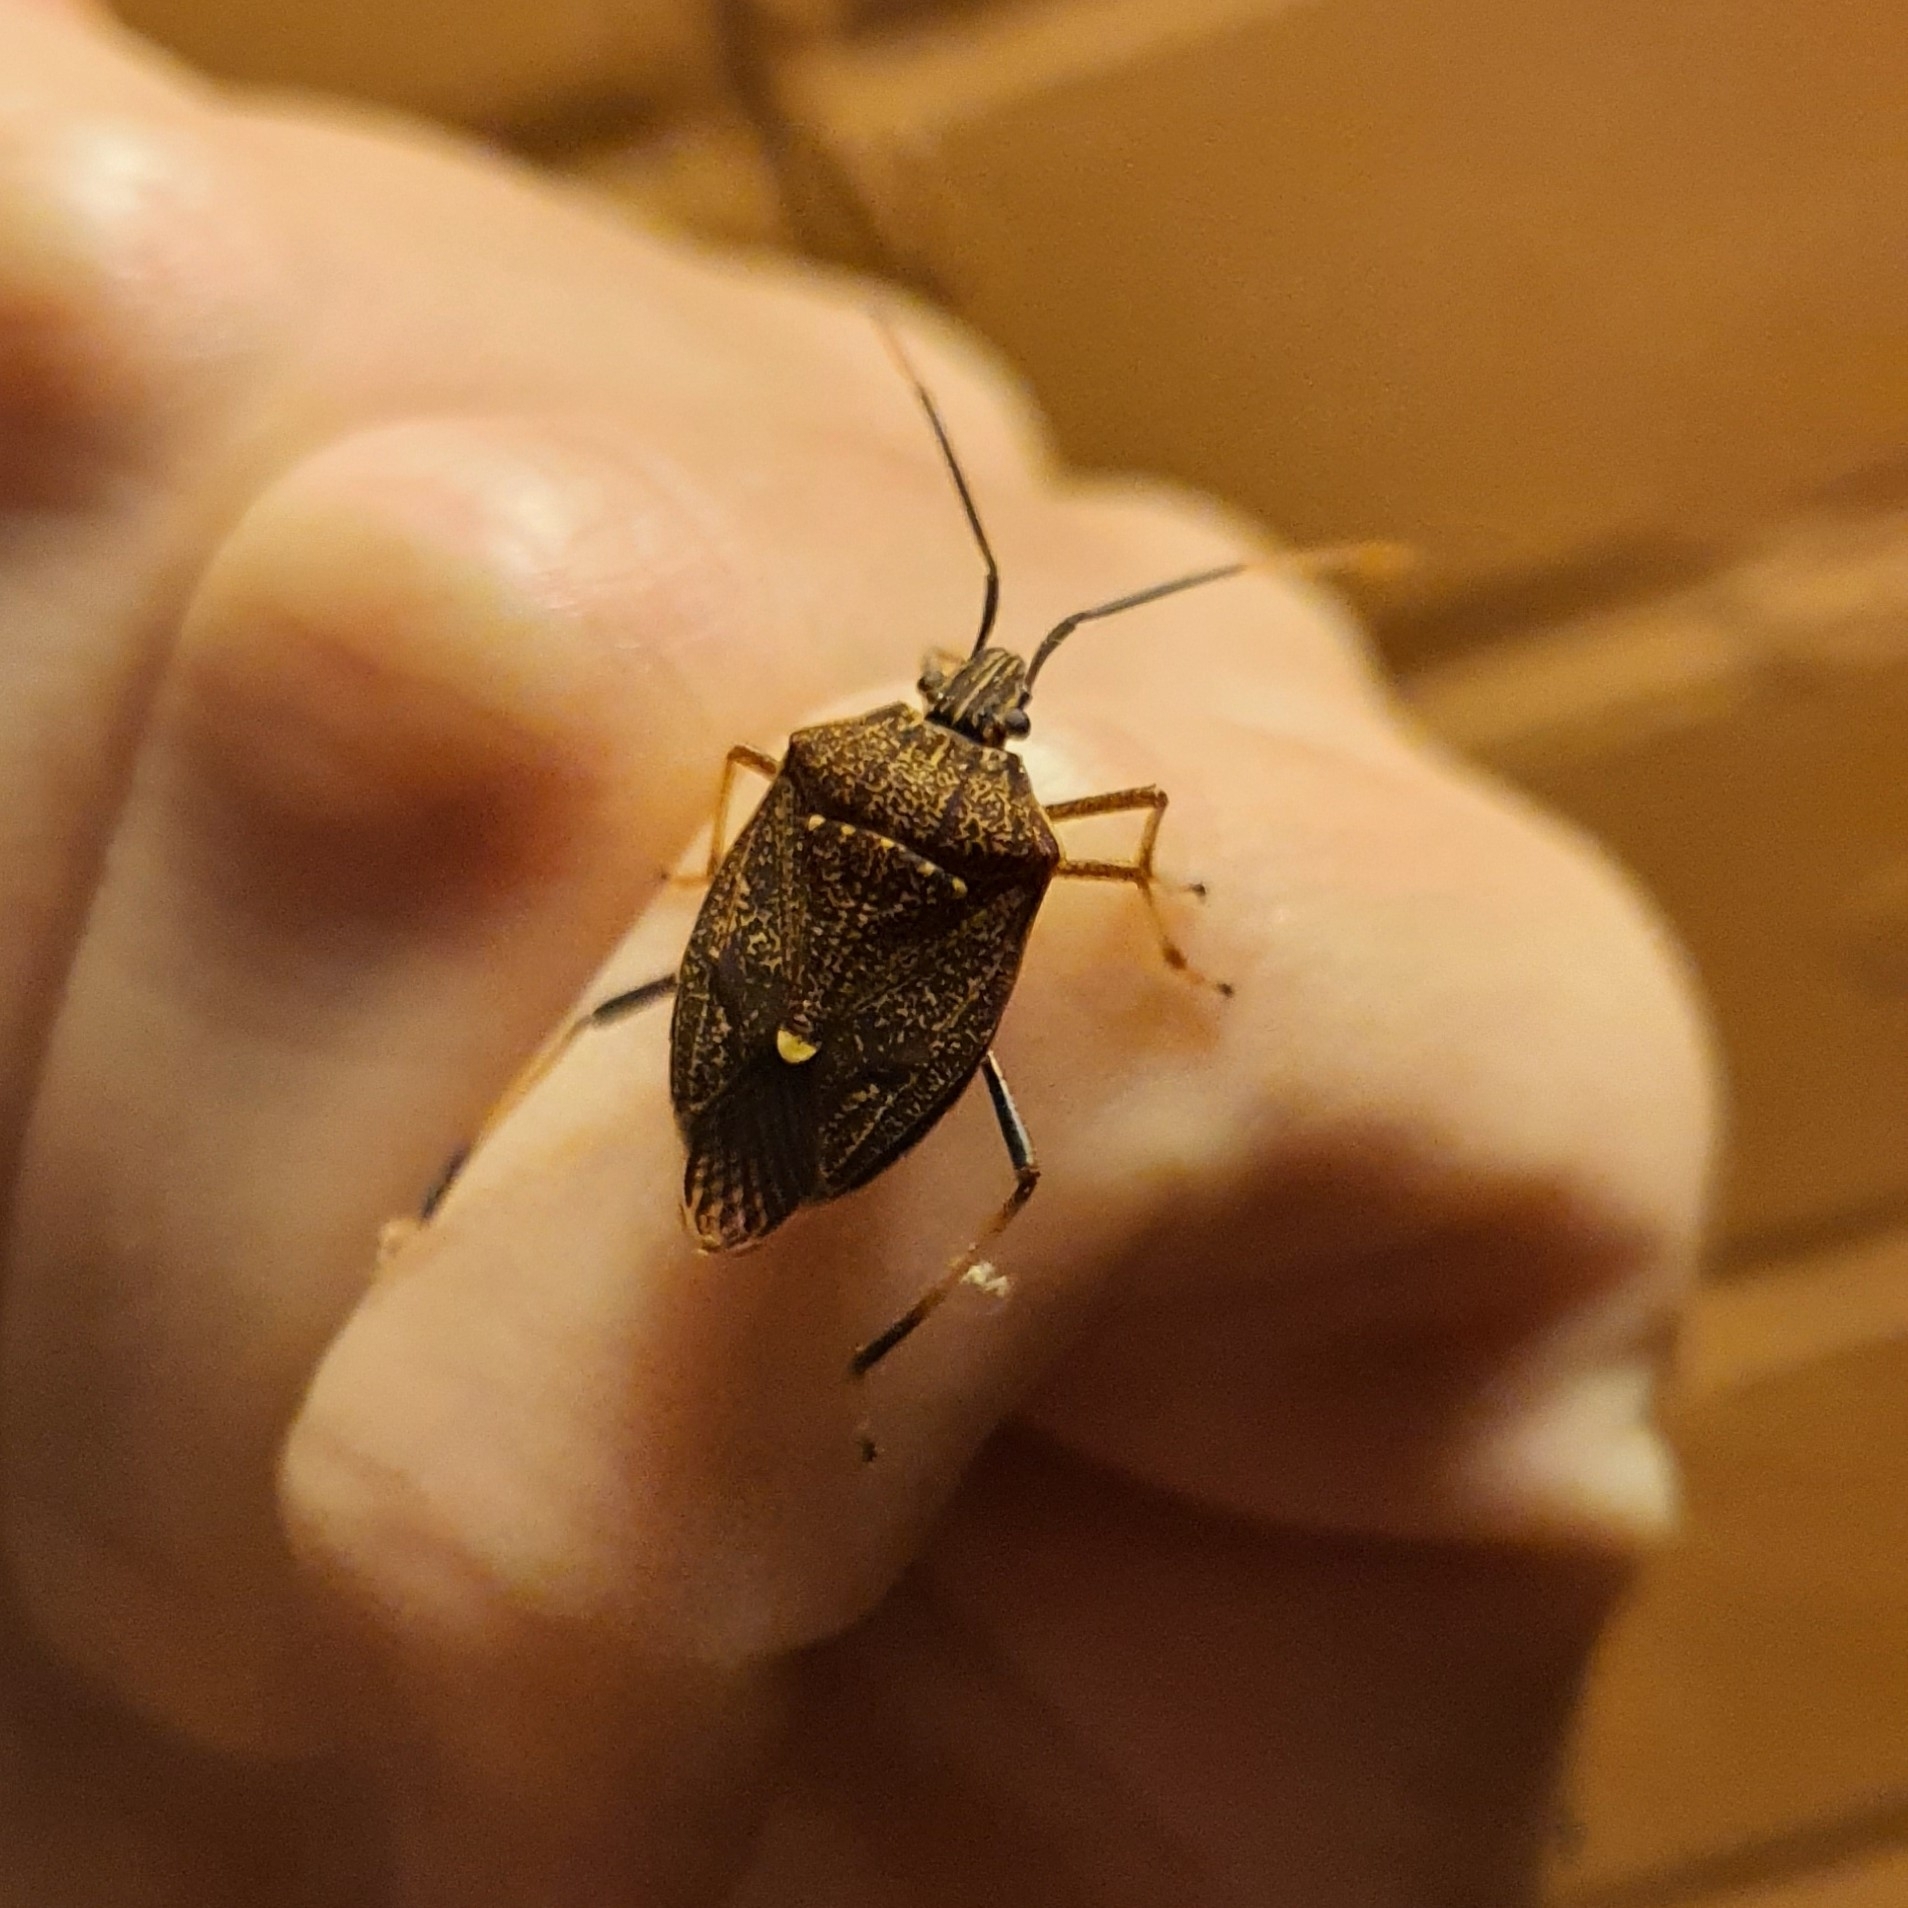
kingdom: Animalia
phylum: Arthropoda
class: Insecta
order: Hemiptera
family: Pentatomidae
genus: Poecilometis
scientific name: Poecilometis
